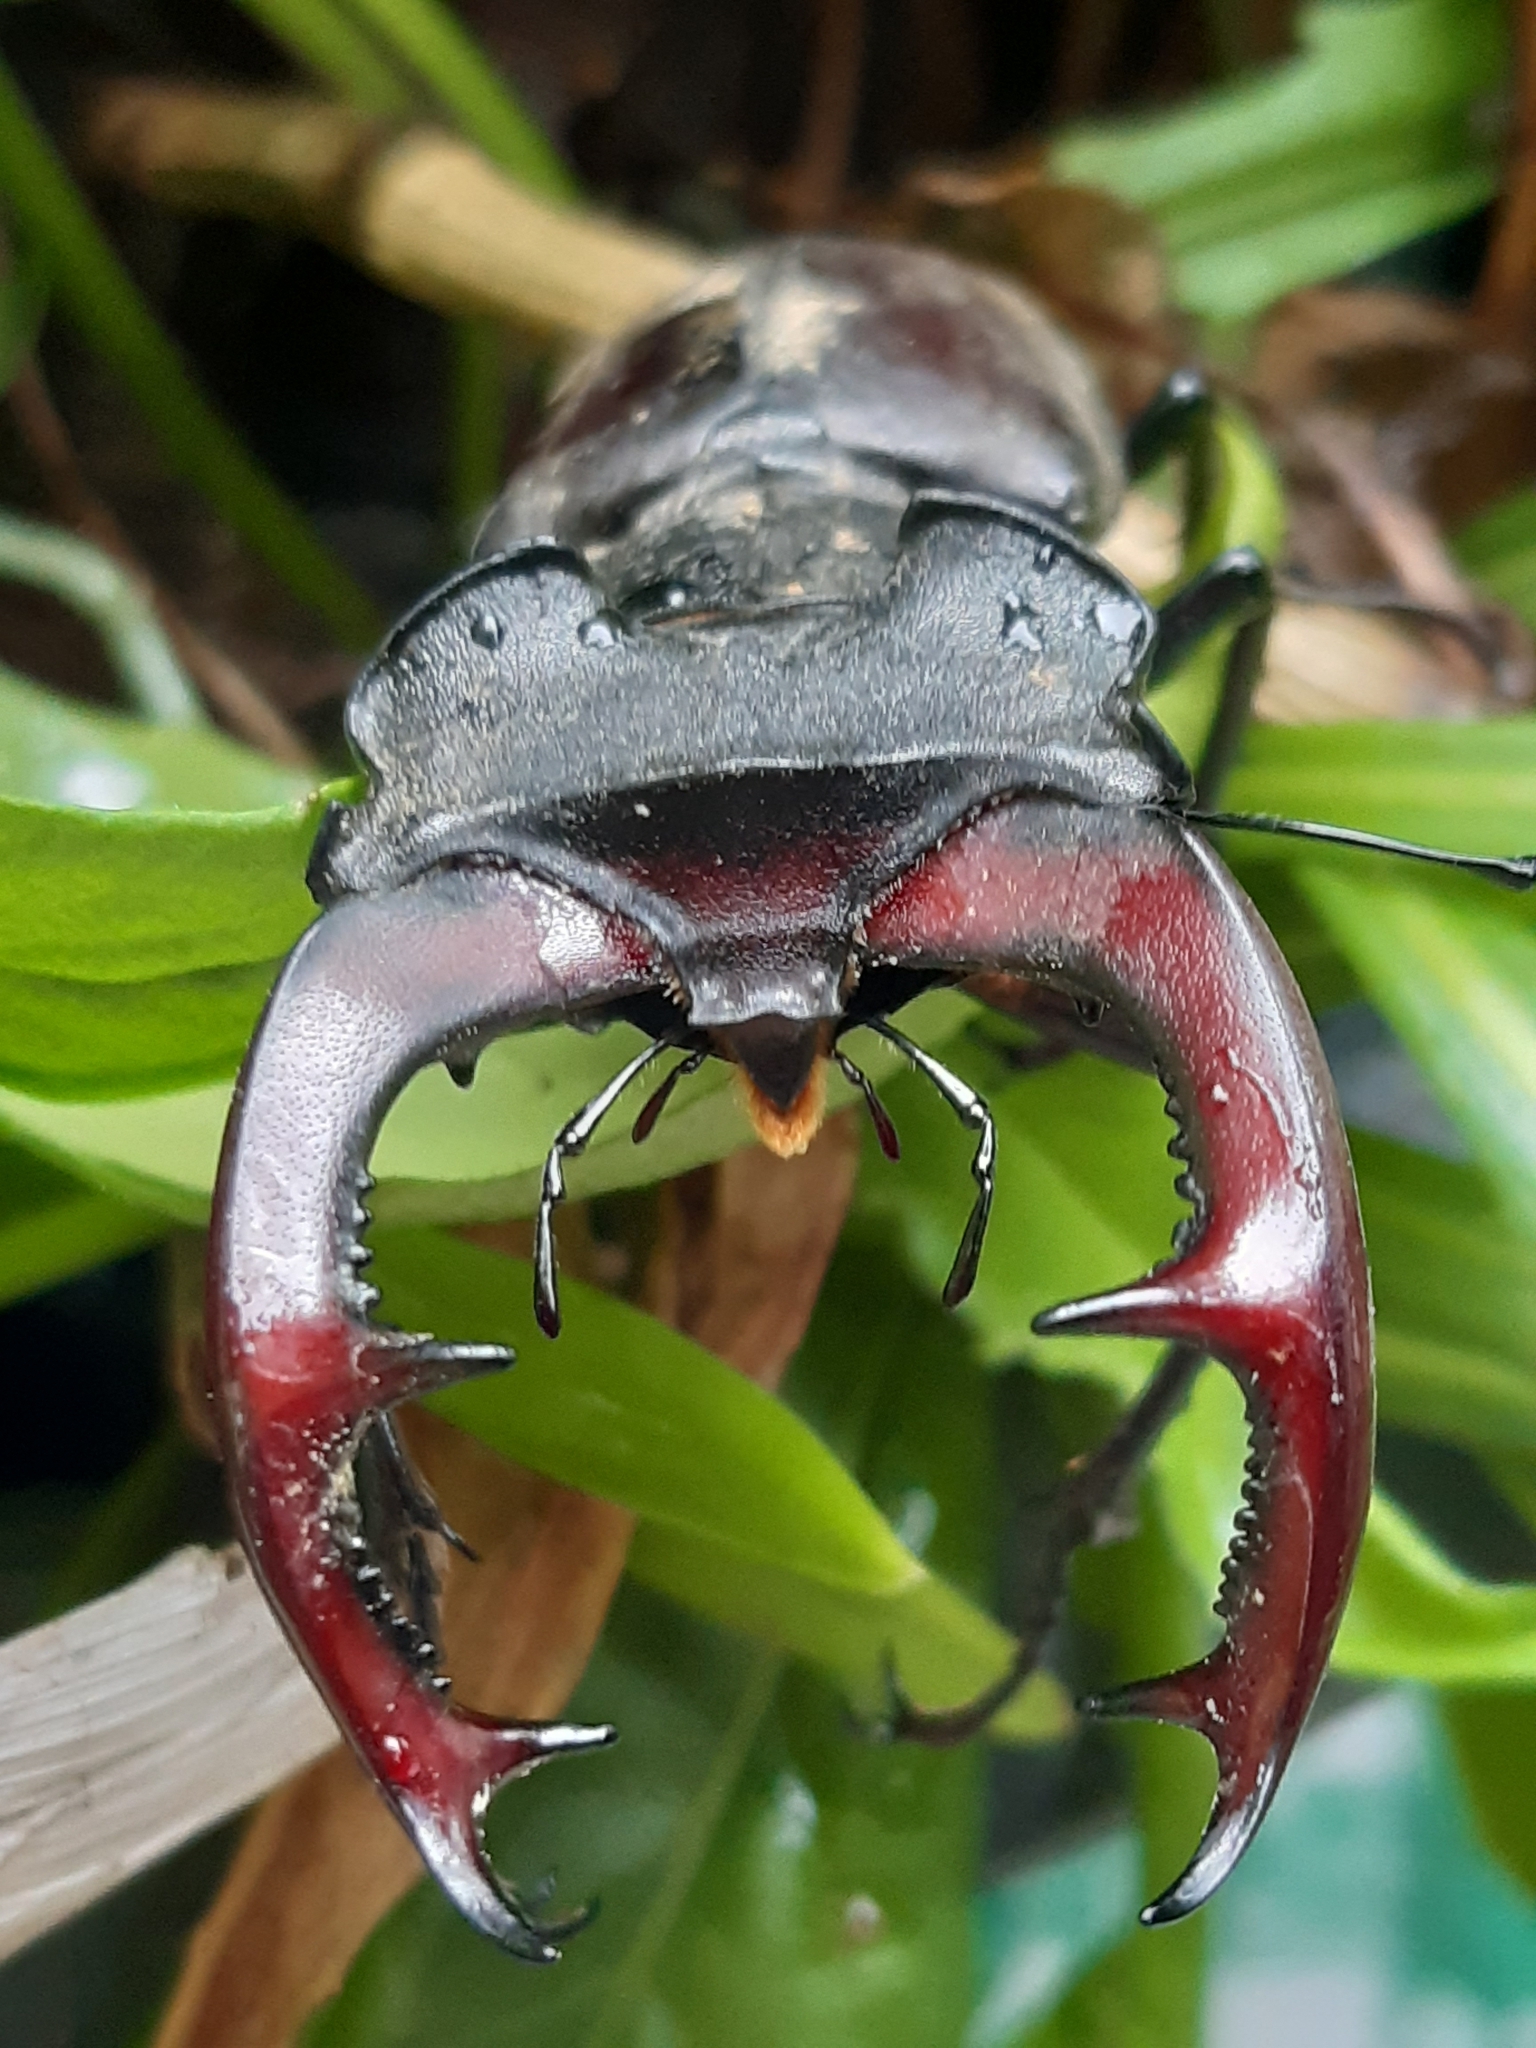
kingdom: Animalia
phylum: Arthropoda
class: Insecta
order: Coleoptera
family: Lucanidae
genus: Lucanus
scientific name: Lucanus cervus
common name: Stag beetle
